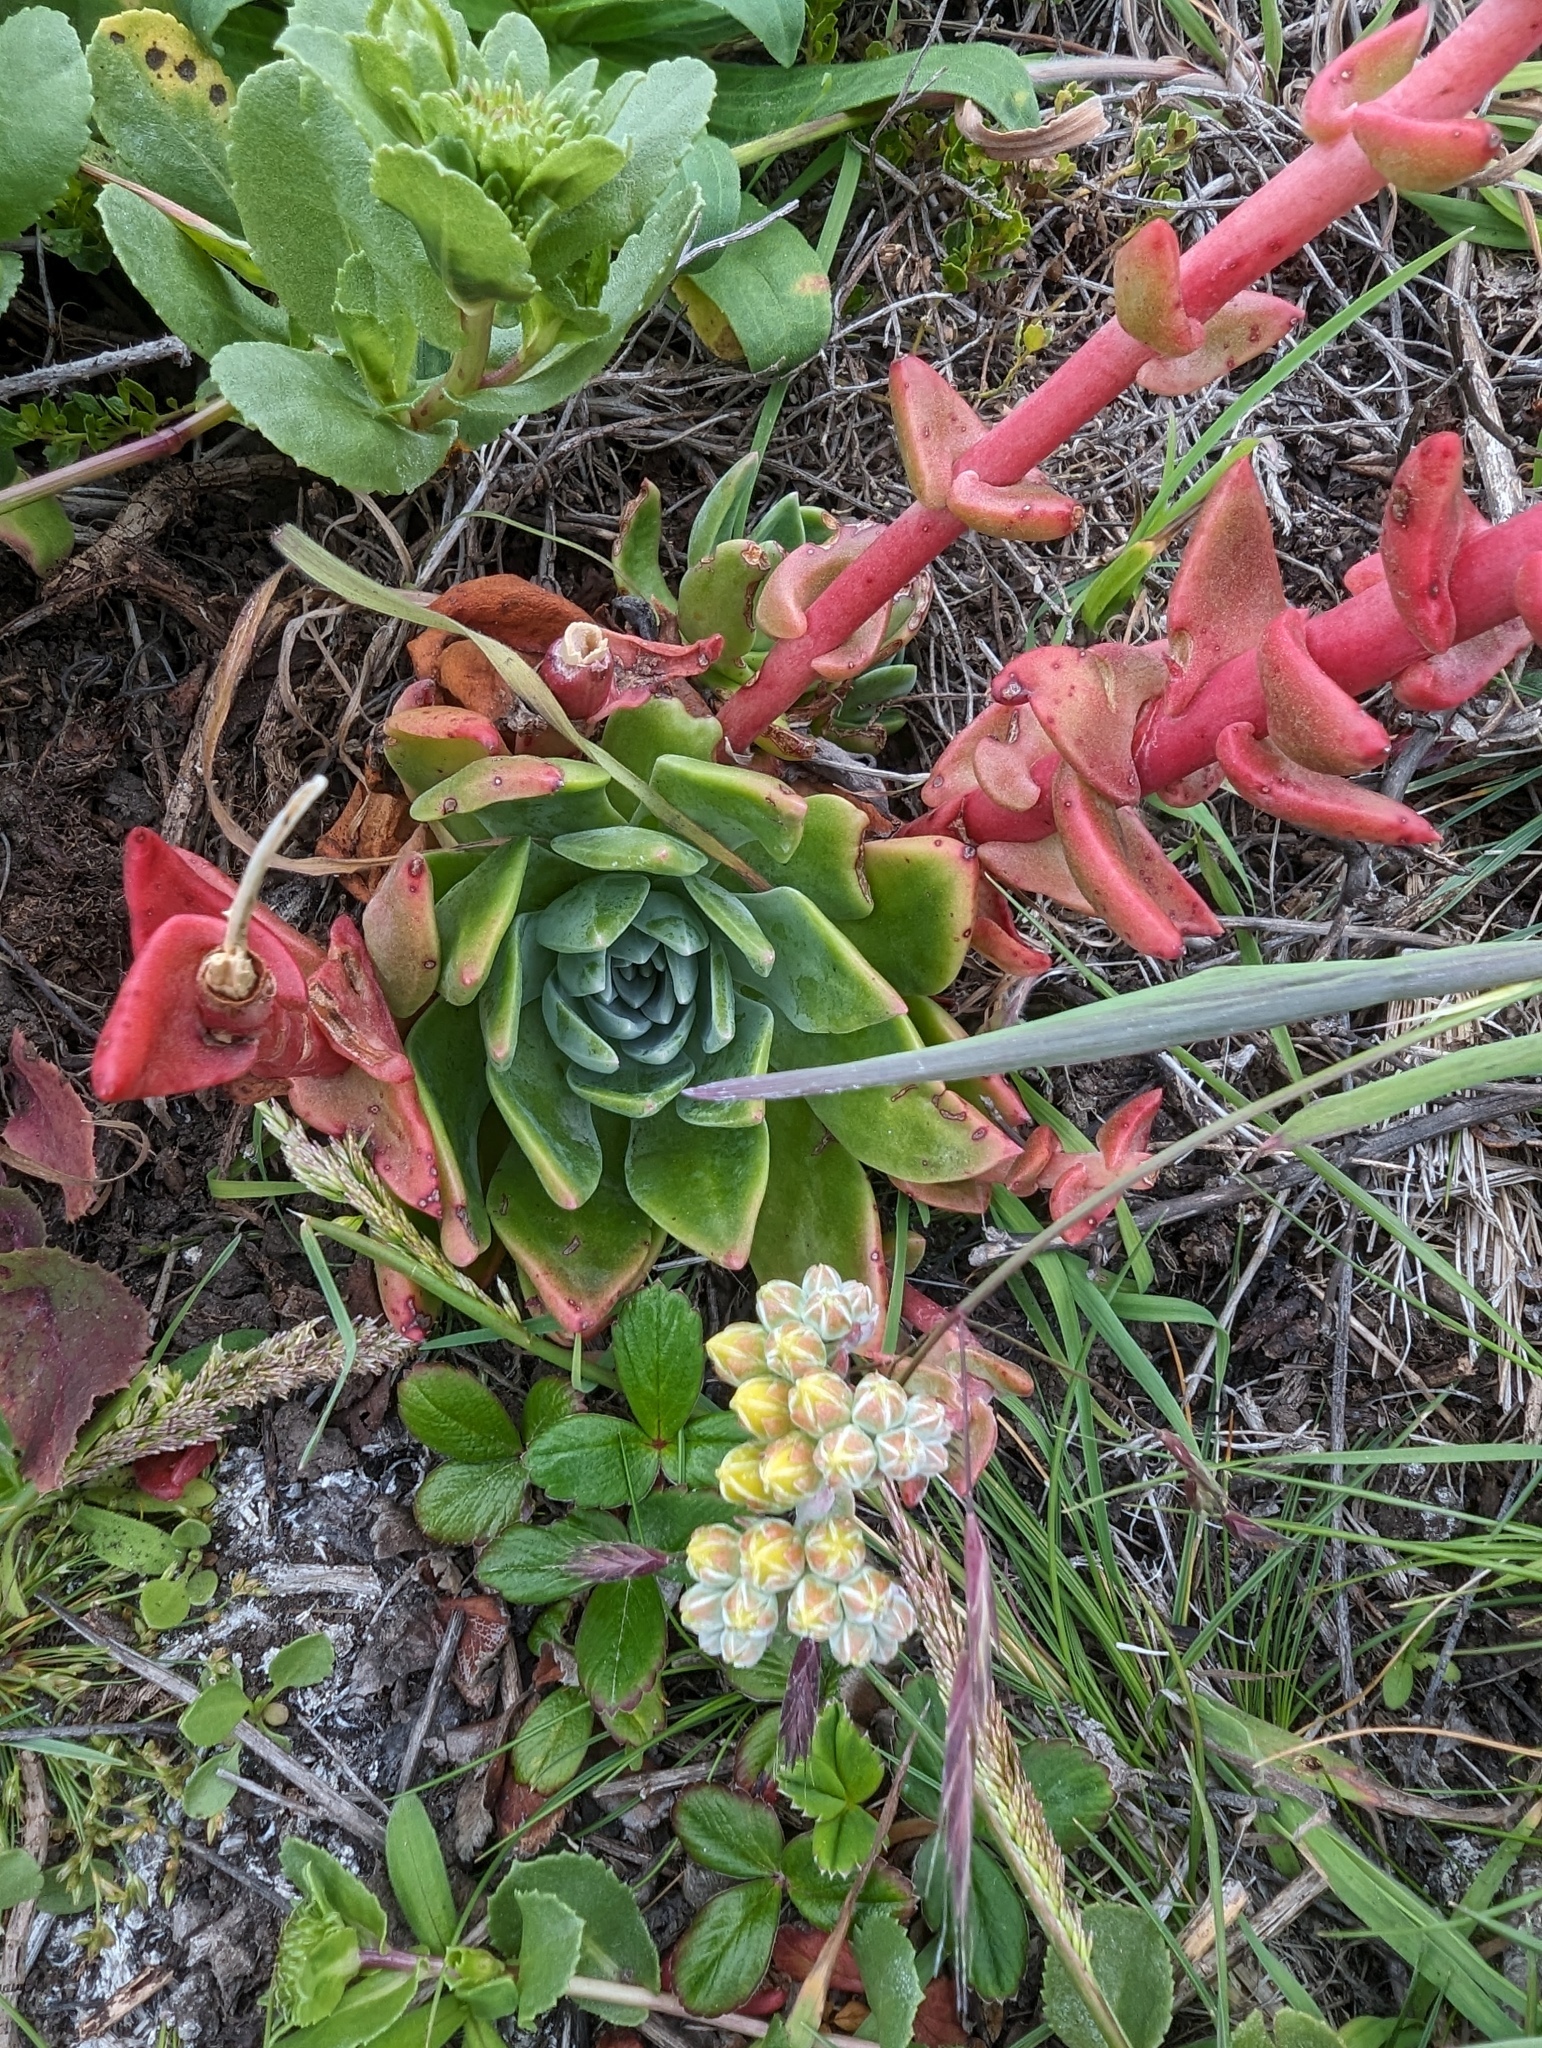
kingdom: Plantae
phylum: Tracheophyta
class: Magnoliopsida
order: Saxifragales
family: Crassulaceae
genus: Dudleya
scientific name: Dudleya caespitosa
